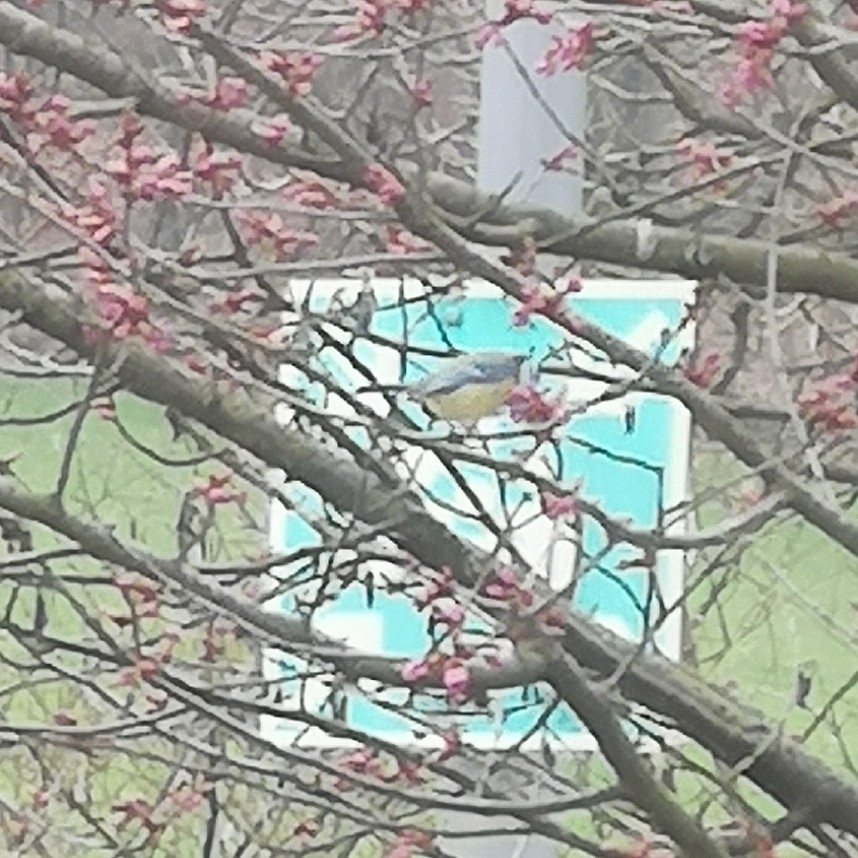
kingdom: Animalia
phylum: Chordata
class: Aves
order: Passeriformes
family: Paridae
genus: Cyanistes
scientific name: Cyanistes caeruleus
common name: Eurasian blue tit
